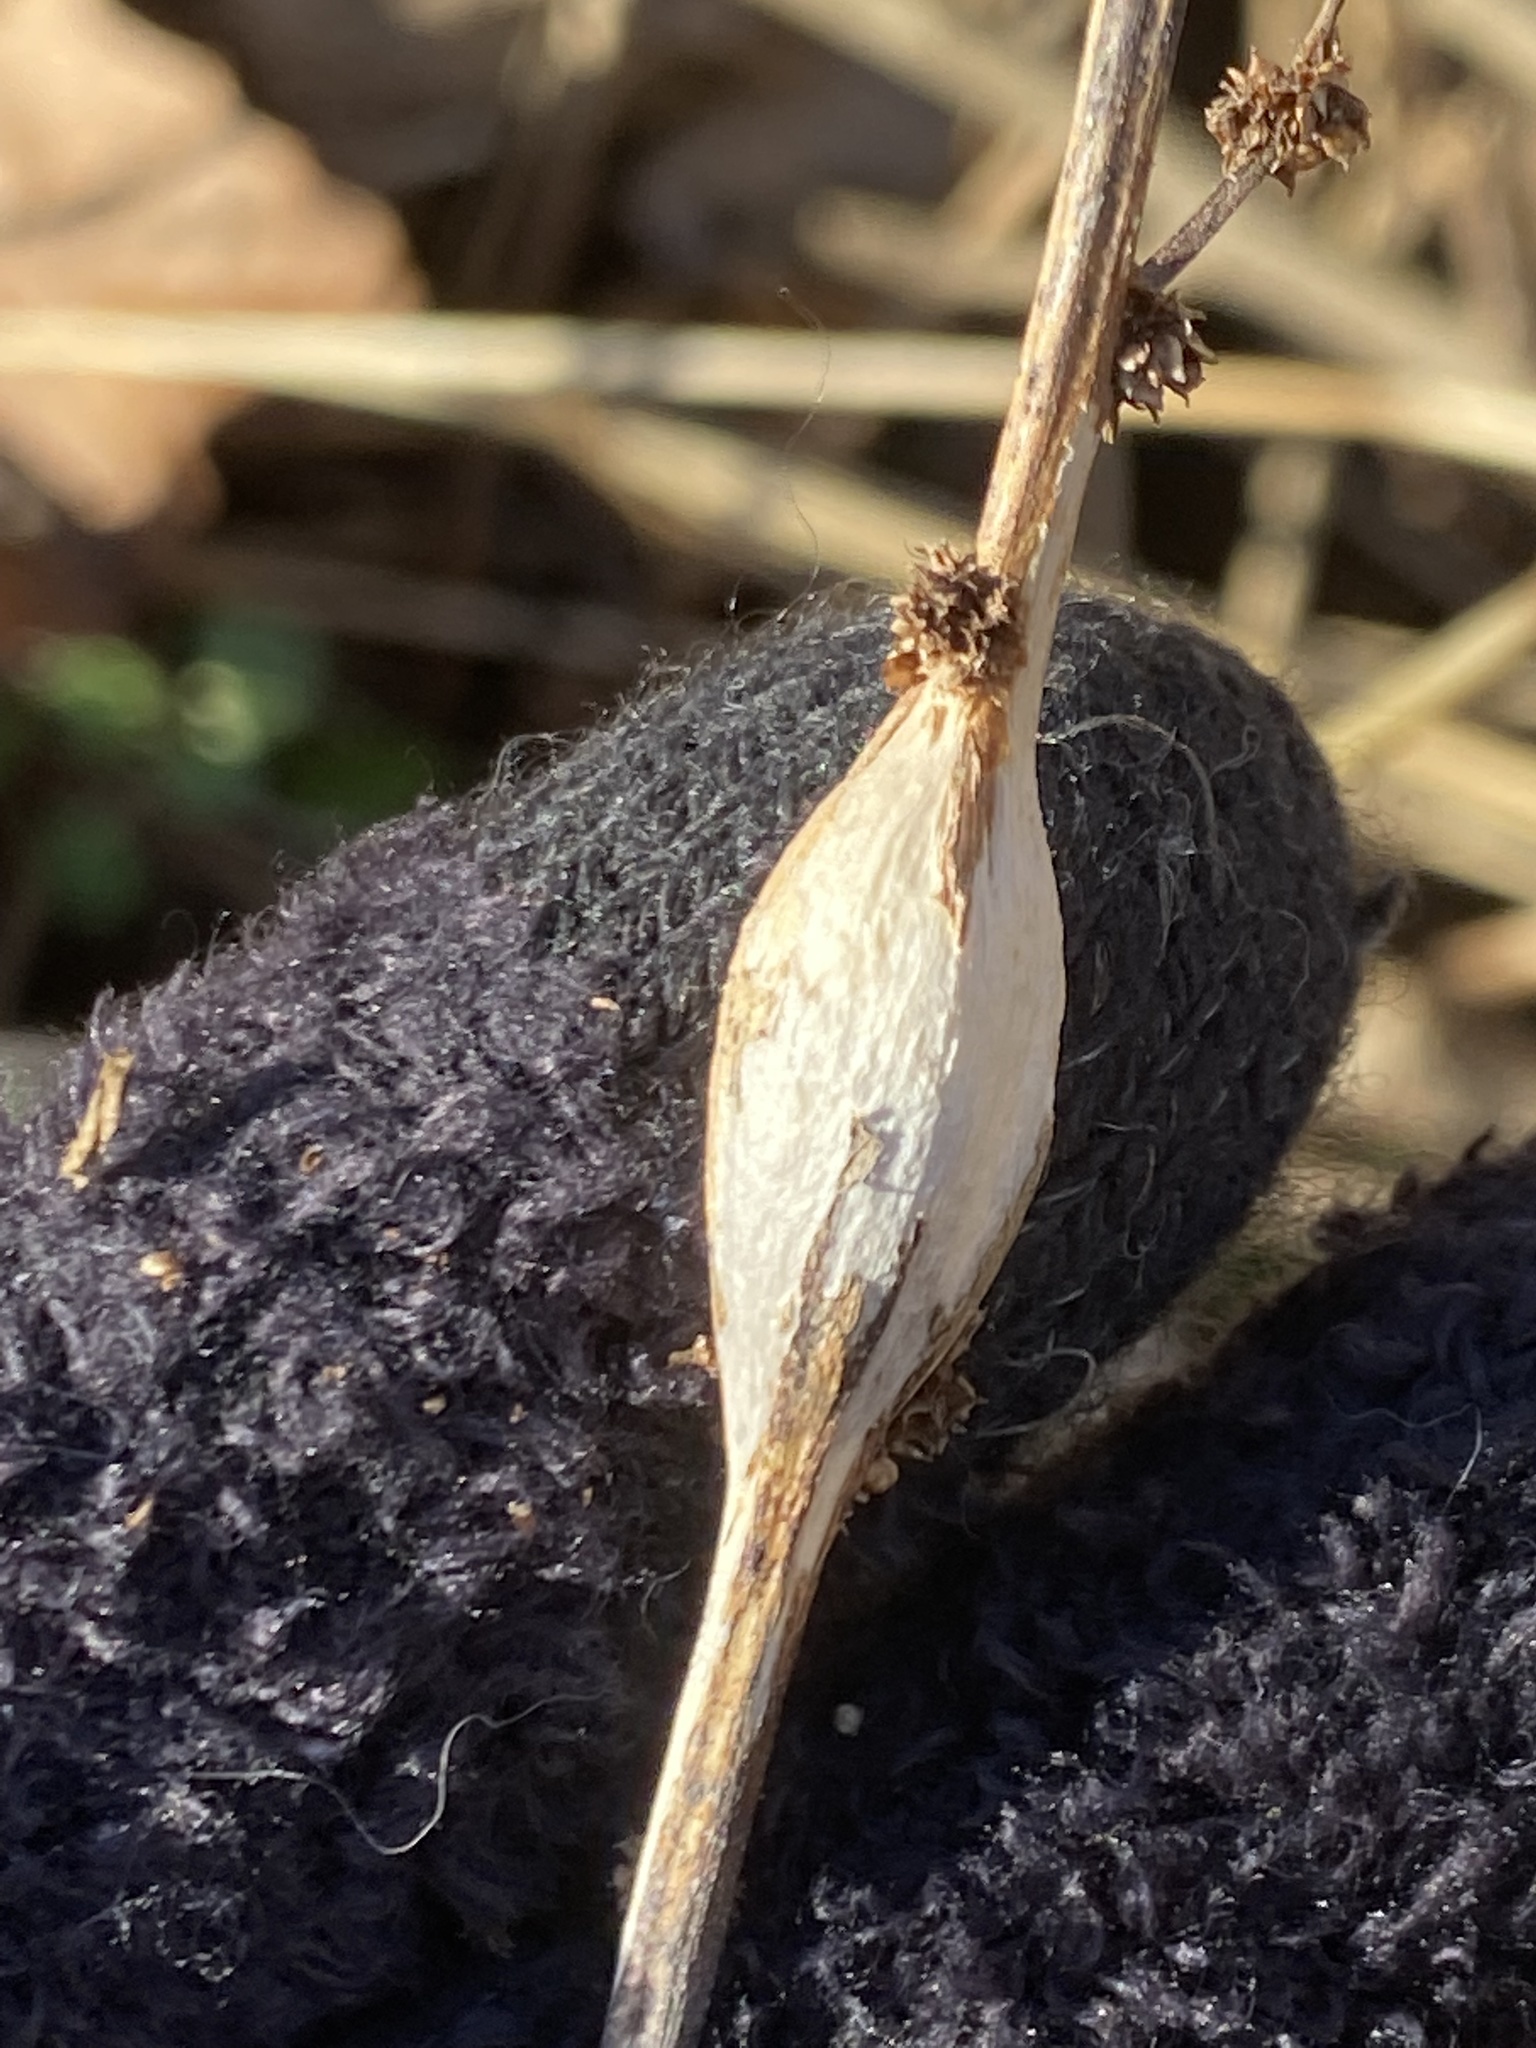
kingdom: Animalia
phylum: Arthropoda
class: Insecta
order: Diptera
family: Cecidomyiidae
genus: Neolasioptera
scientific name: Neolasioptera boehmeriae
